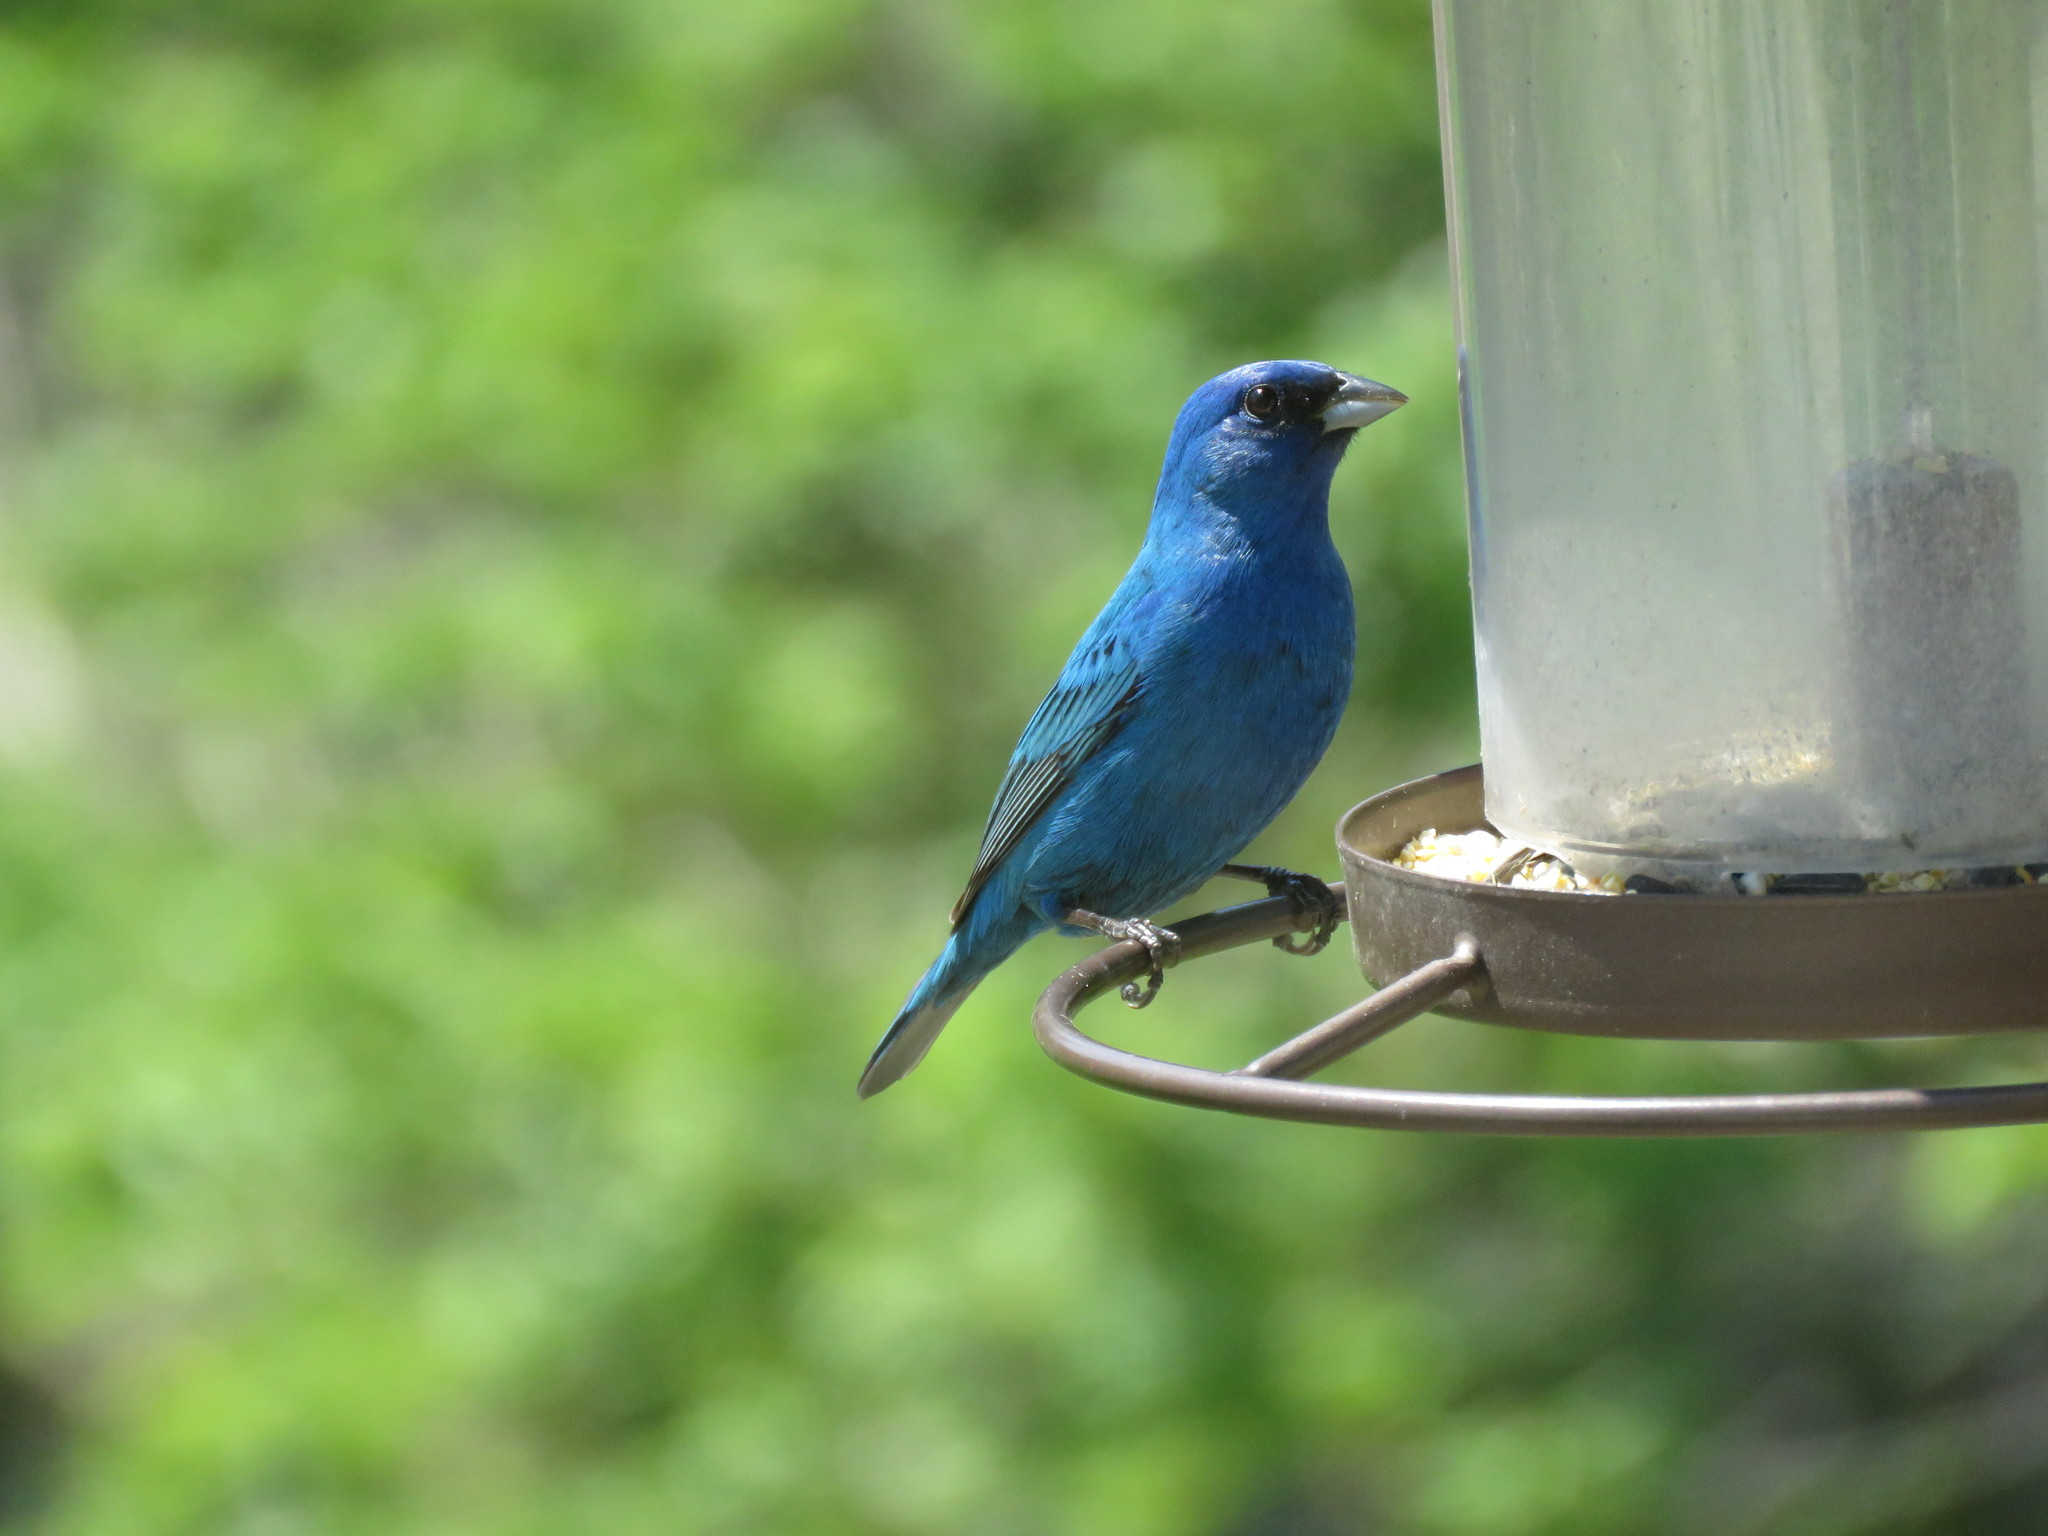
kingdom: Animalia
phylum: Chordata
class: Aves
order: Passeriformes
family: Cardinalidae
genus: Passerina
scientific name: Passerina cyanea
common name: Indigo bunting
